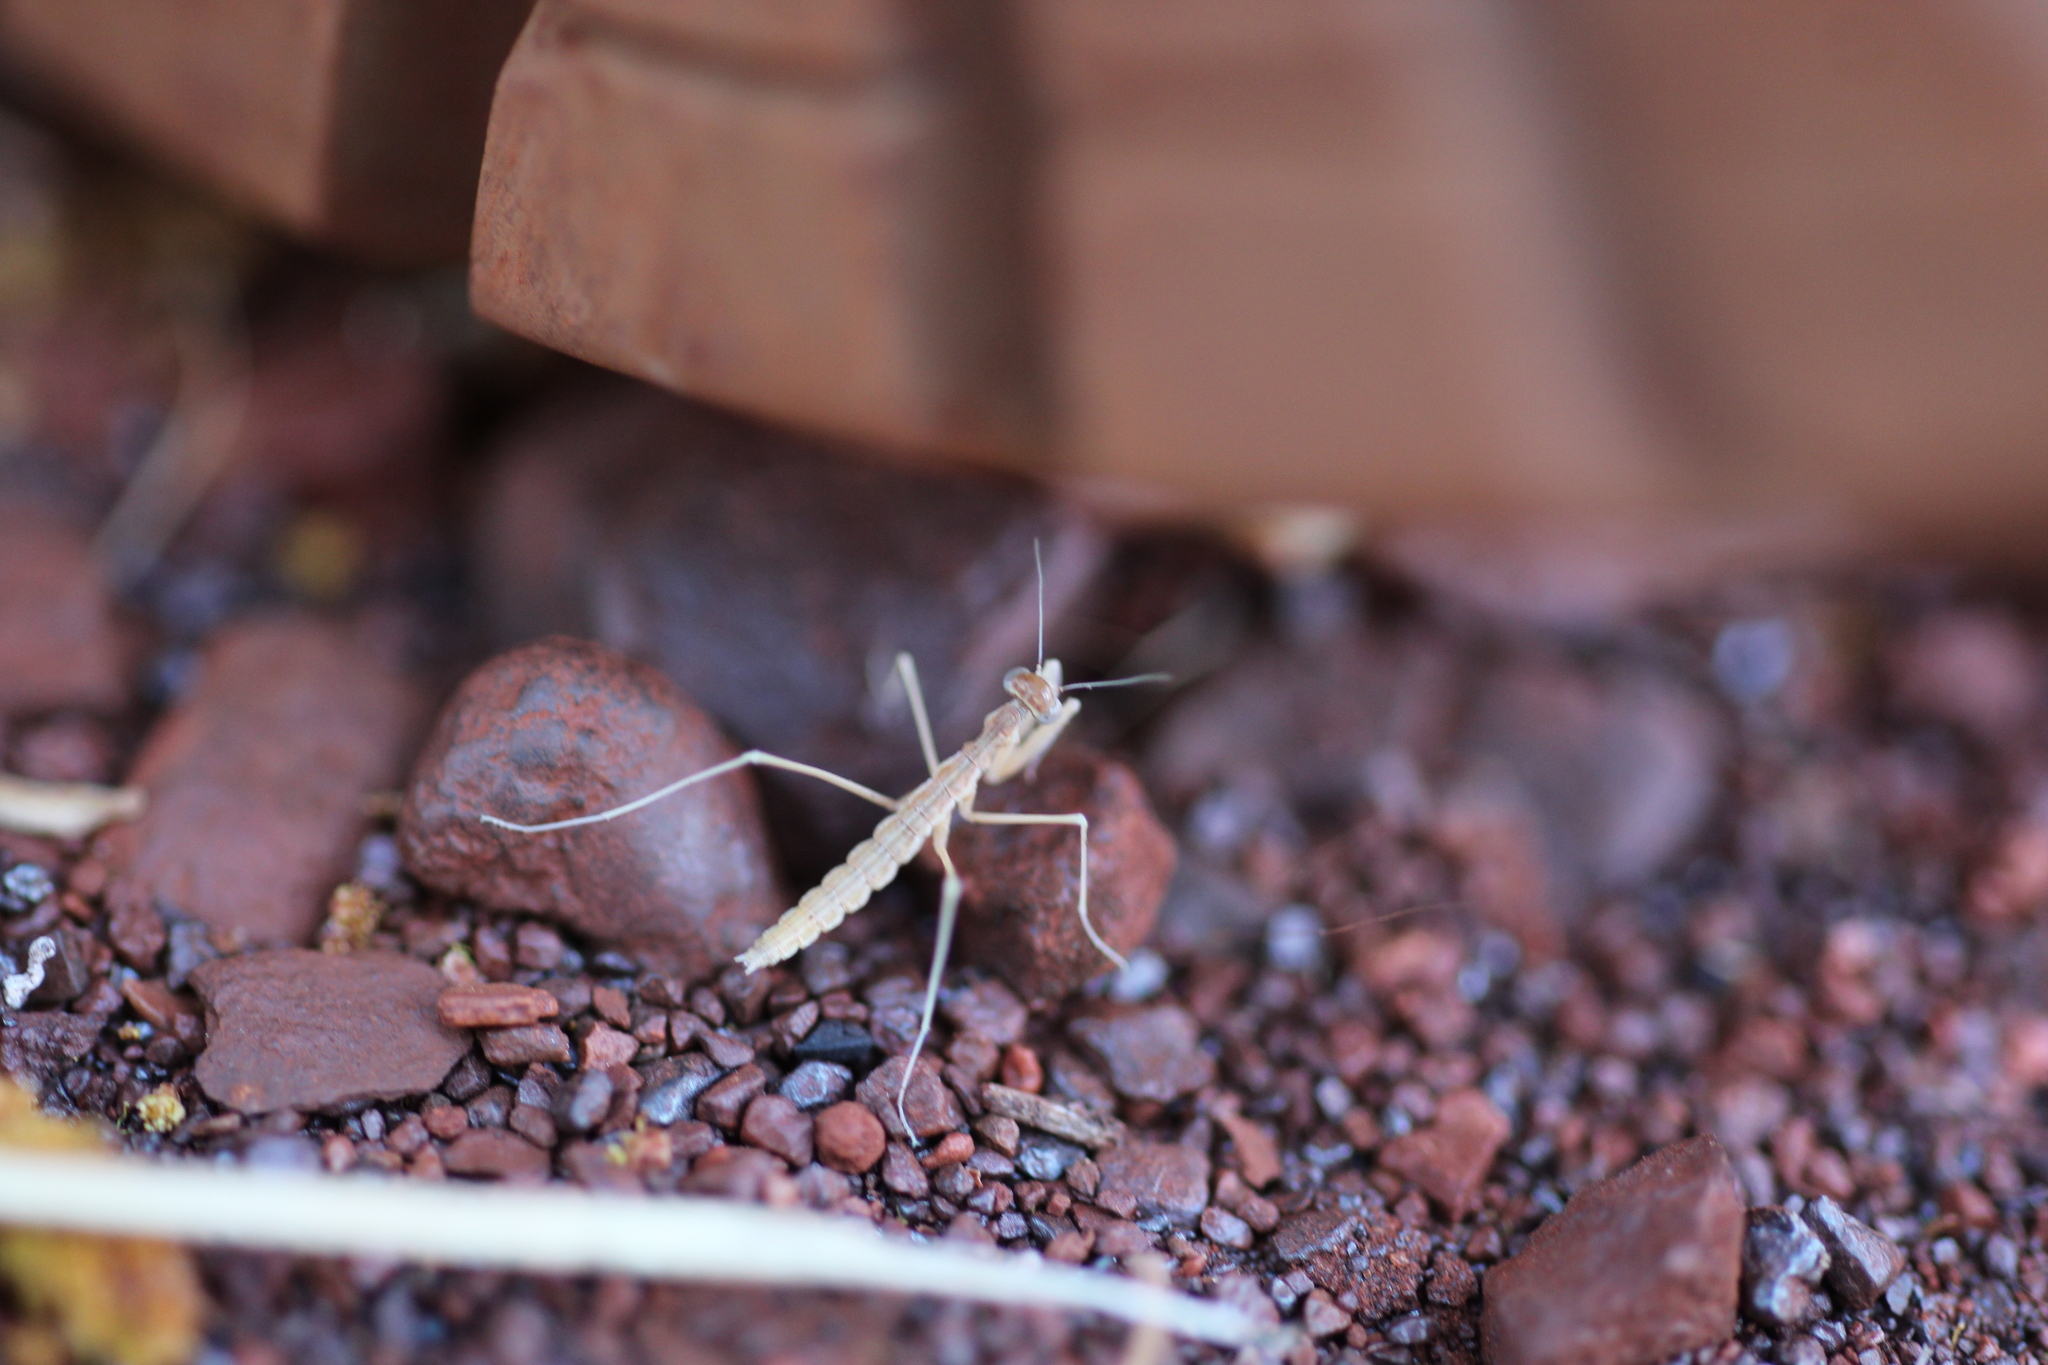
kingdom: Animalia
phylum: Arthropoda
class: Insecta
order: Mantodea
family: Mantidae
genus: Rhodomantis
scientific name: Rhodomantis disparilis
